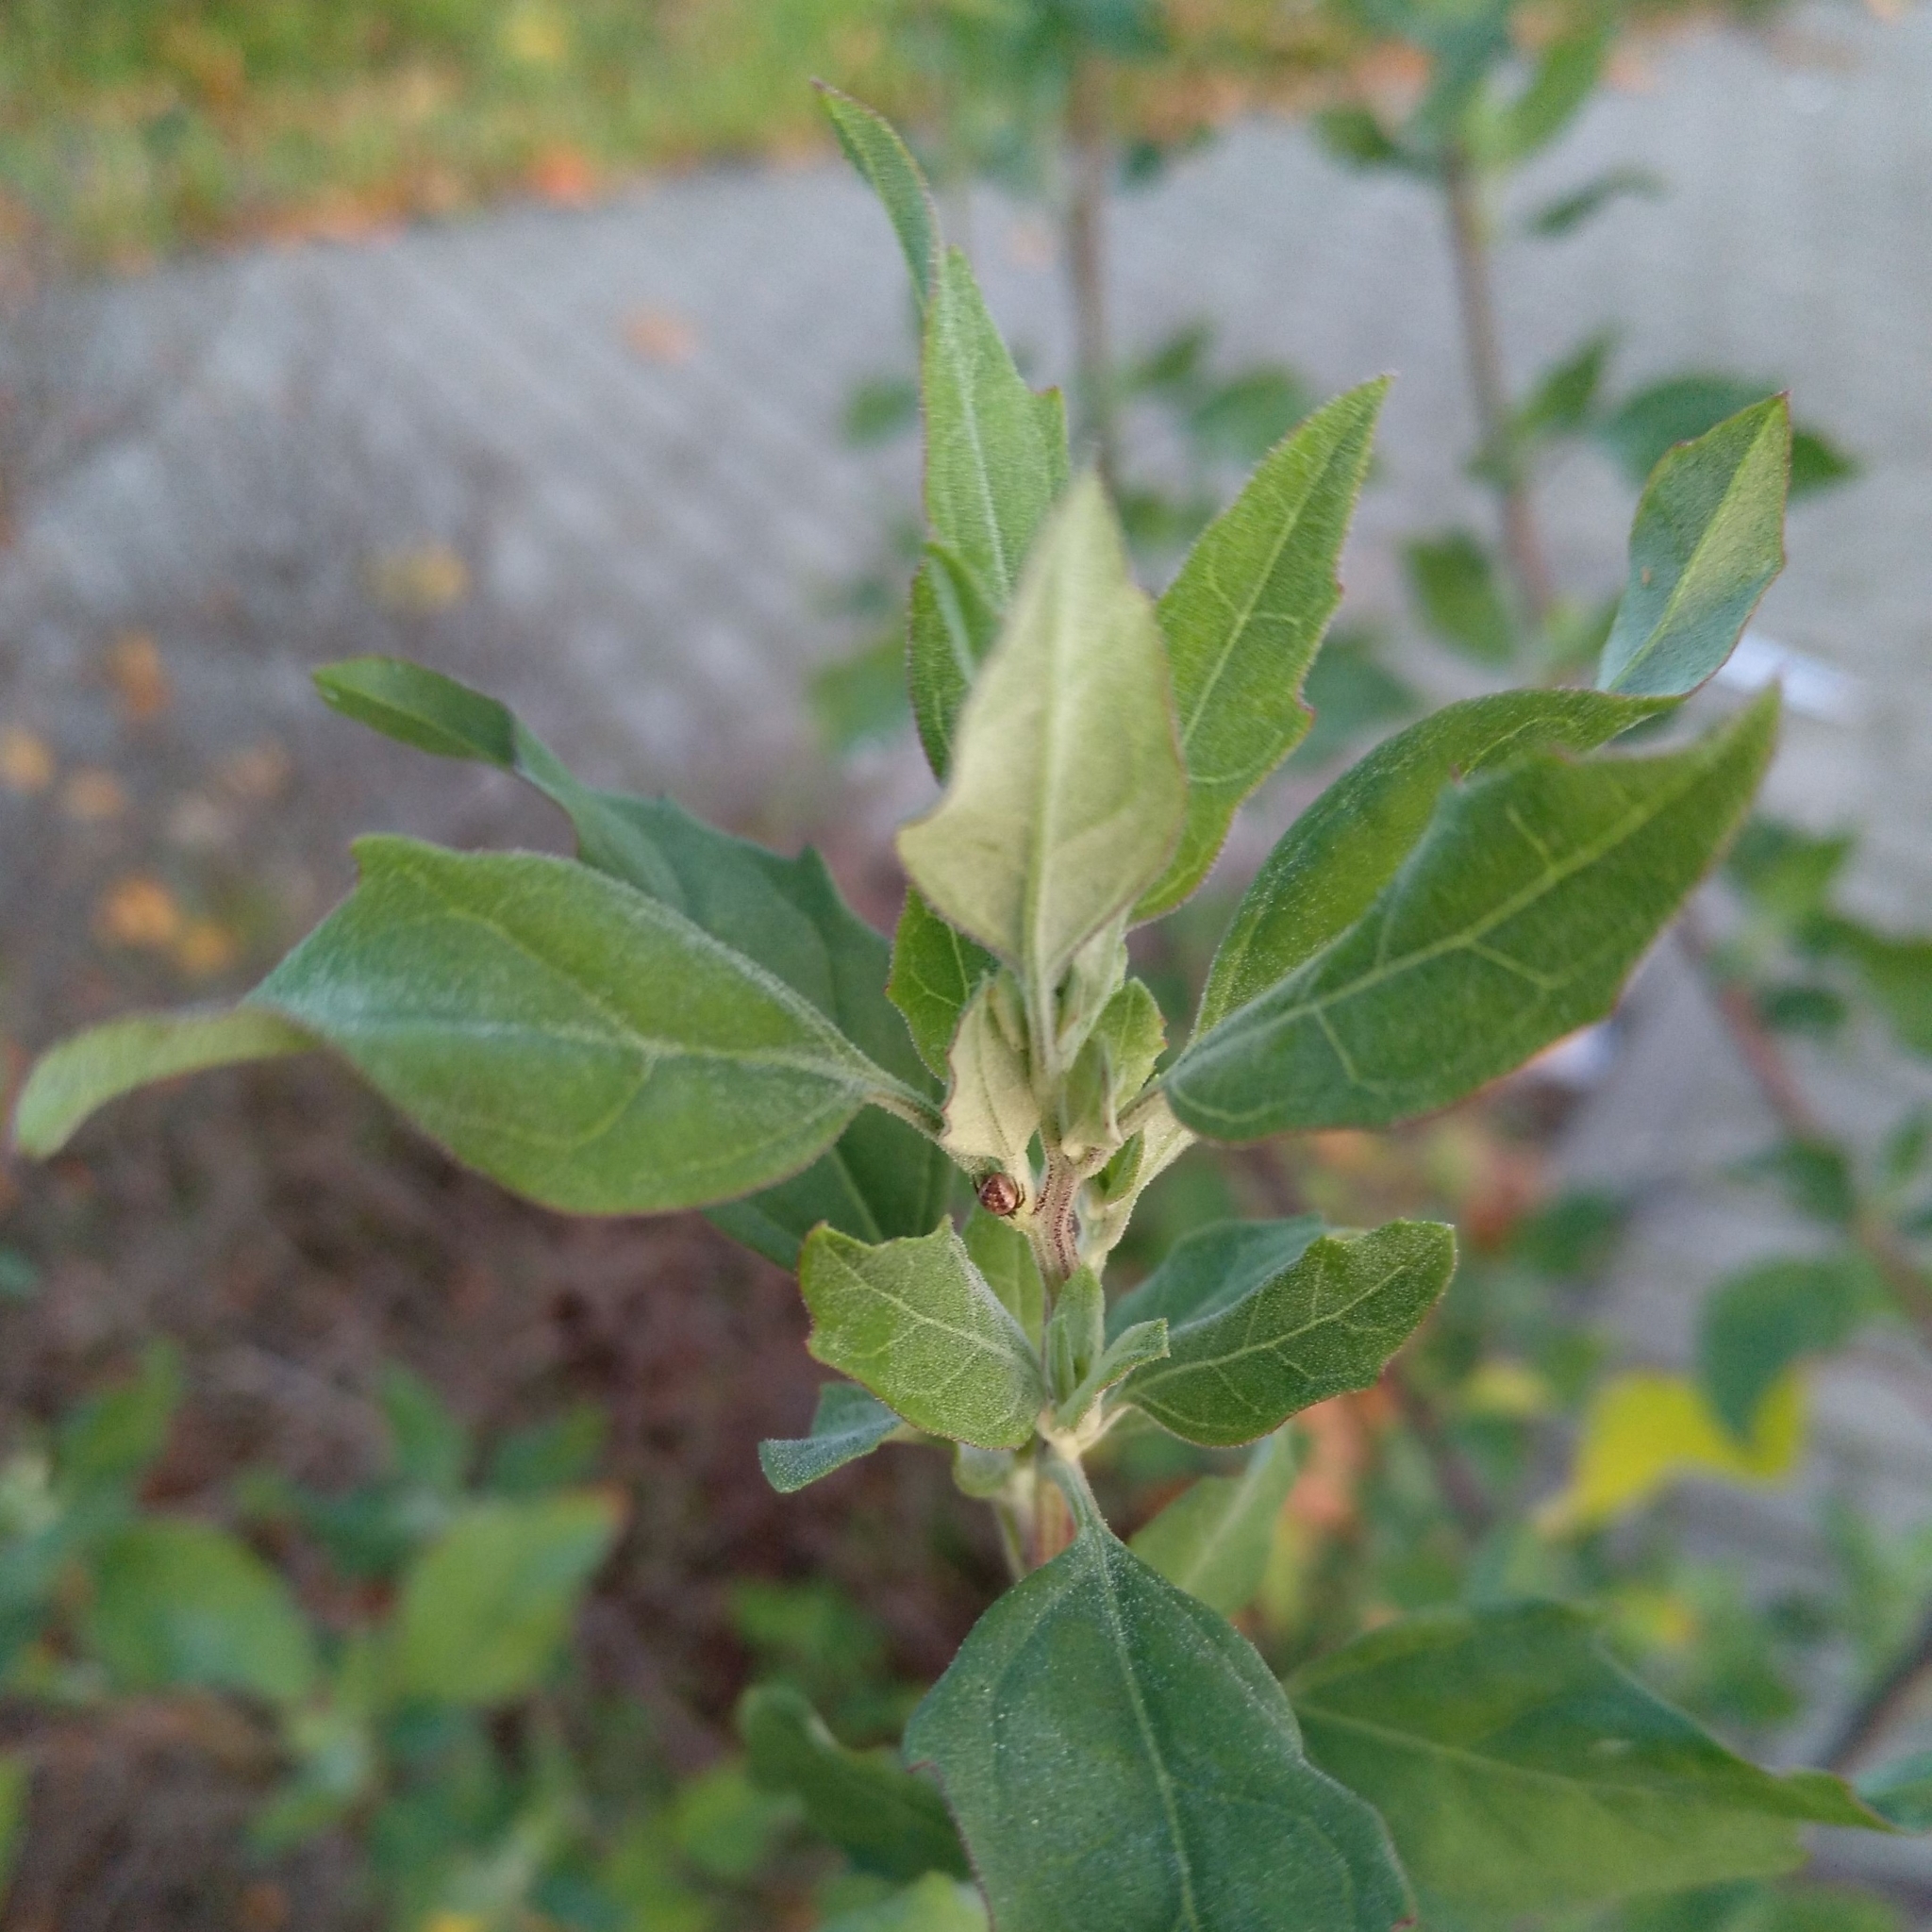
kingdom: Plantae
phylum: Tracheophyta
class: Magnoliopsida
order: Caryophyllales
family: Amaranthaceae
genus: Chenopodium
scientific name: Chenopodium album
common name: Fat-hen
